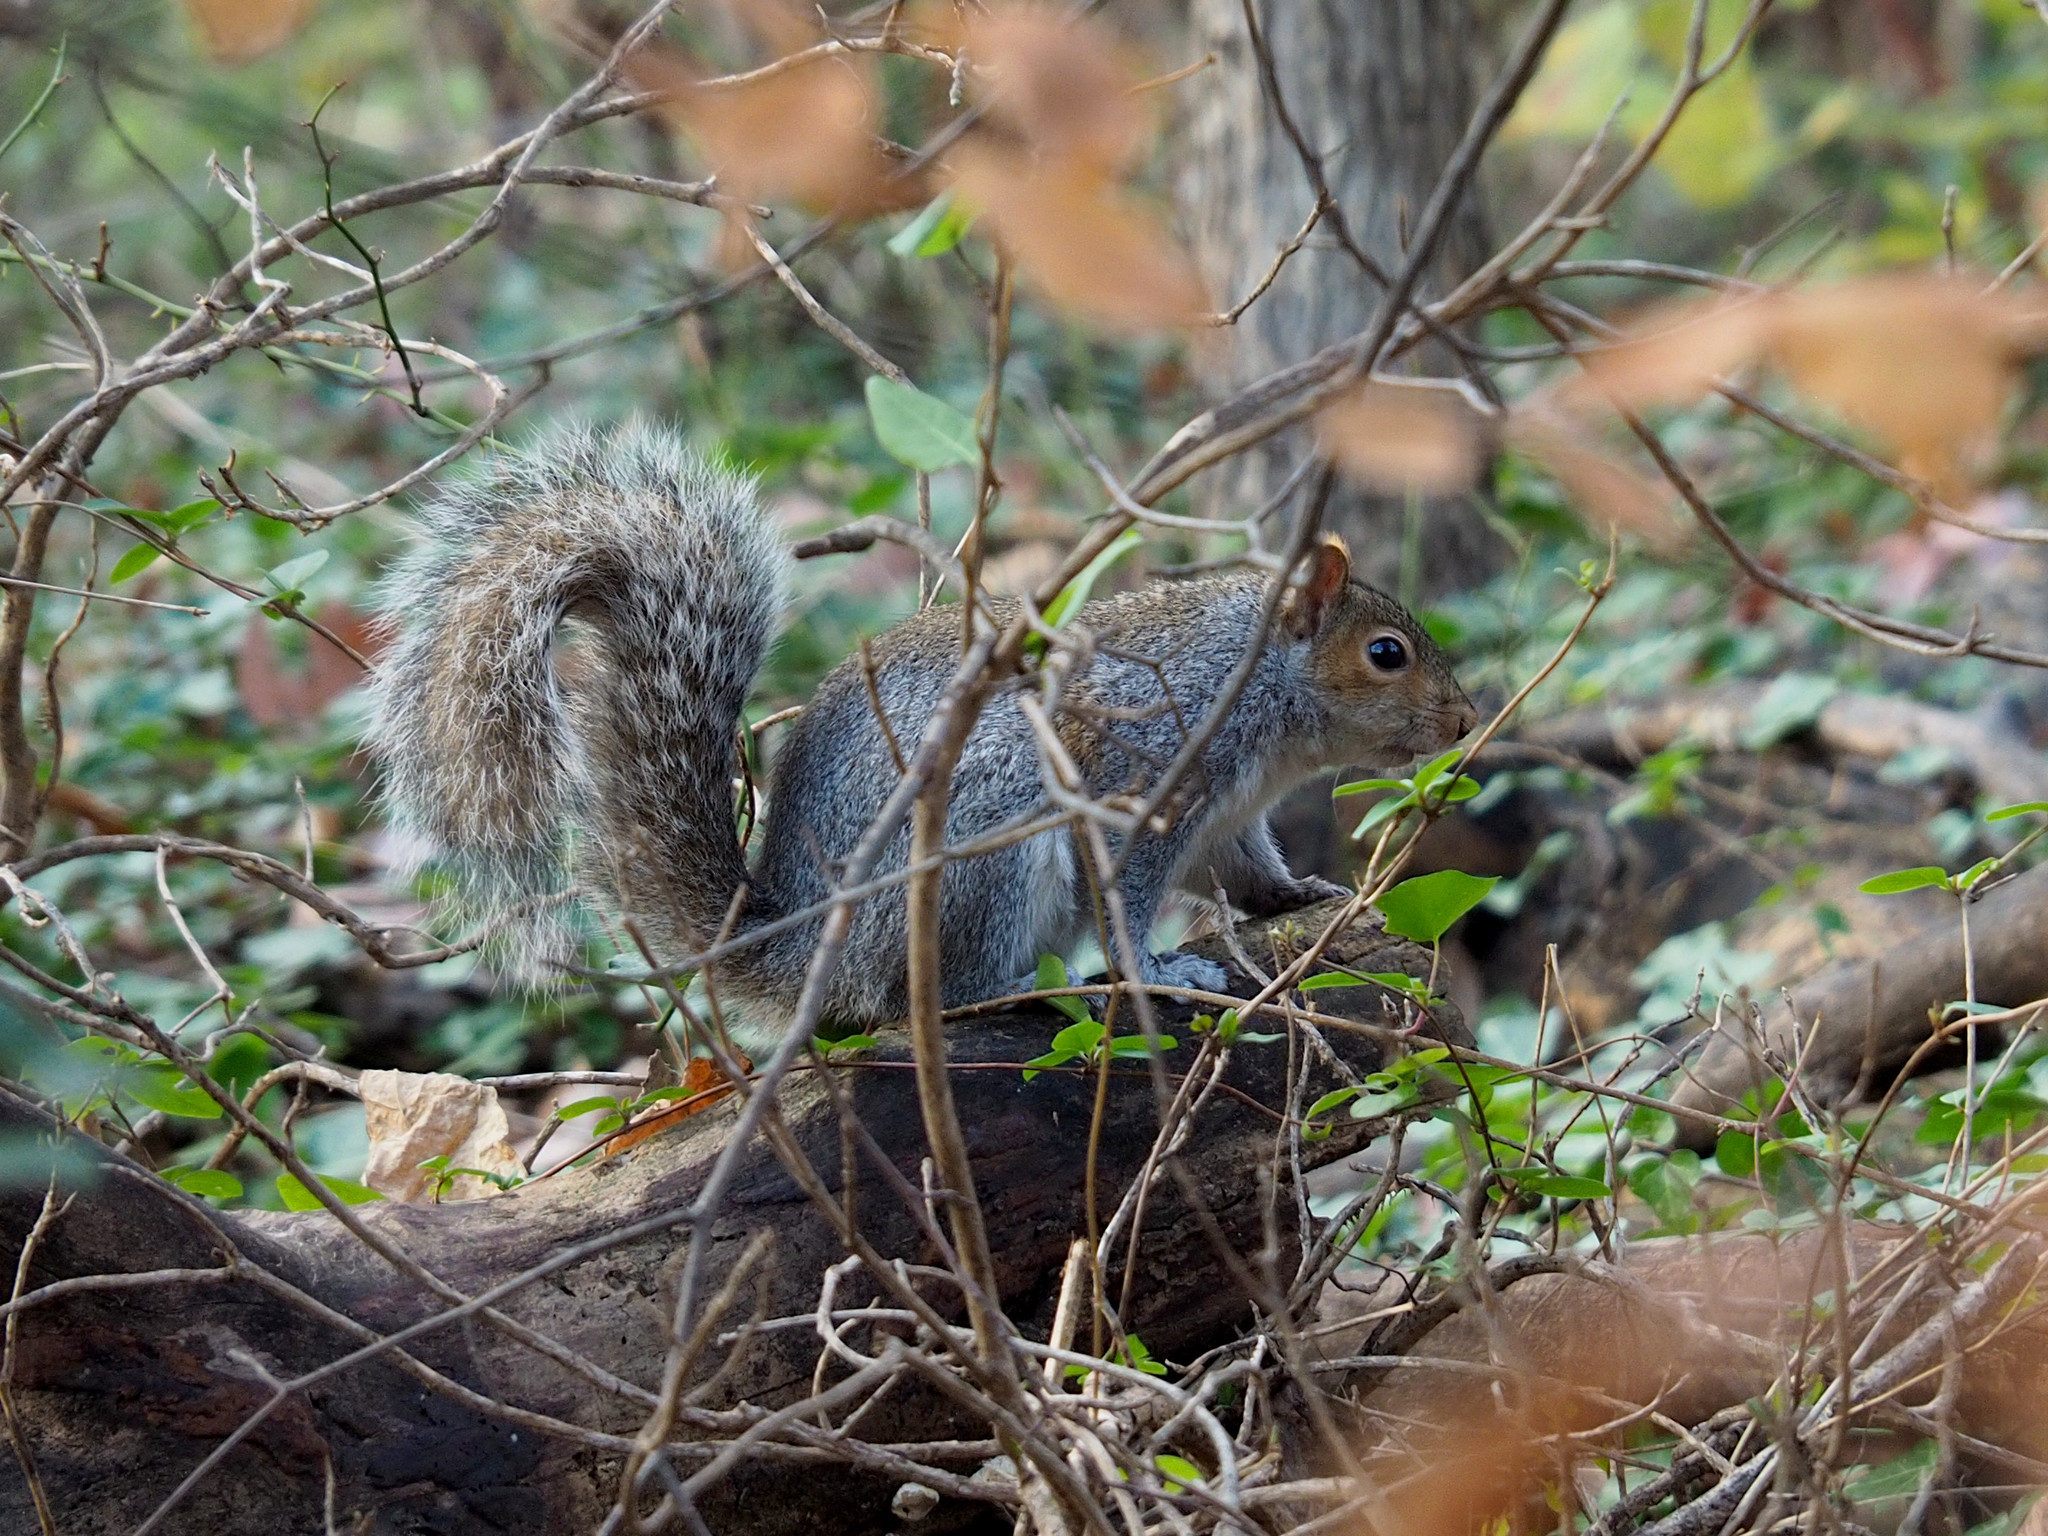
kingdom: Animalia
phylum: Chordata
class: Mammalia
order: Rodentia
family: Sciuridae
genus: Sciurus
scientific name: Sciurus carolinensis
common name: Eastern gray squirrel
